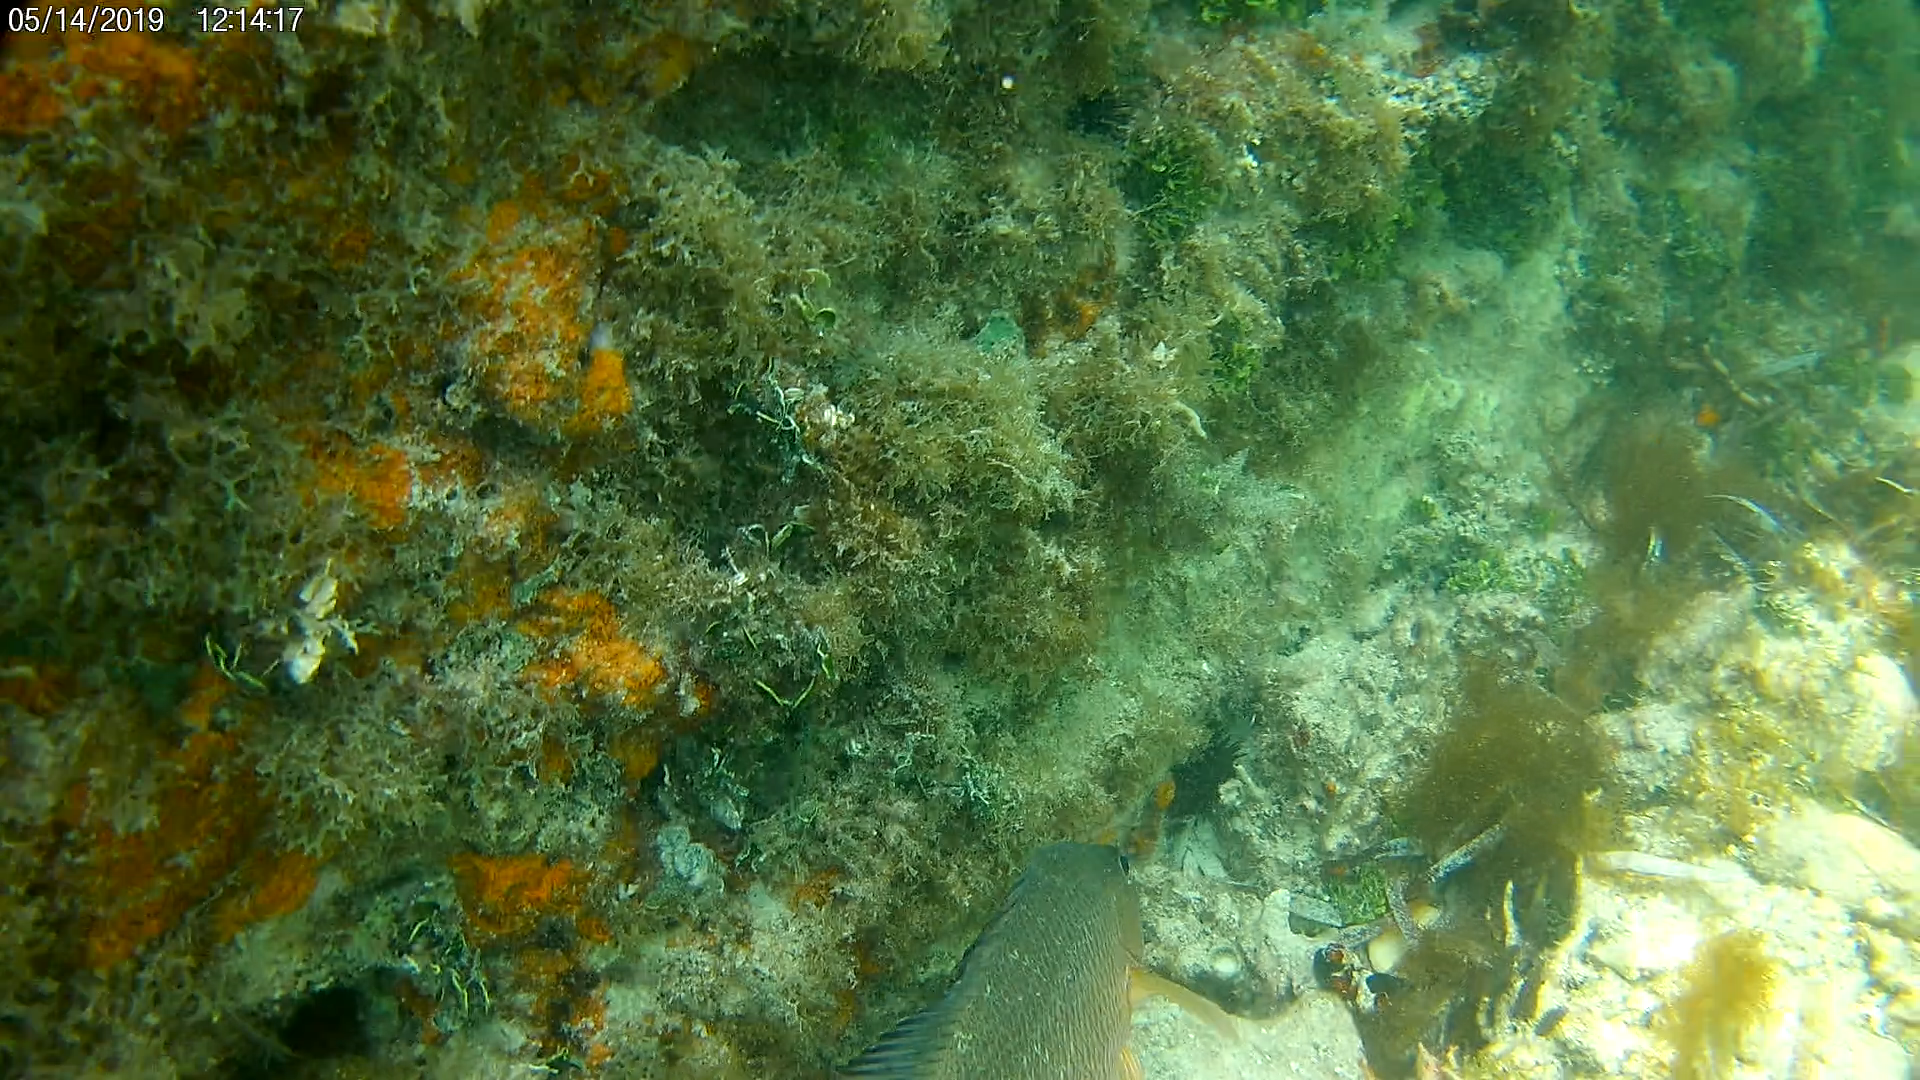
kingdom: Animalia
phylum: Chordata
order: Perciformes
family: Lutjanidae
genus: Lutjanus
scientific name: Lutjanus apodus
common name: Schoolmaster
